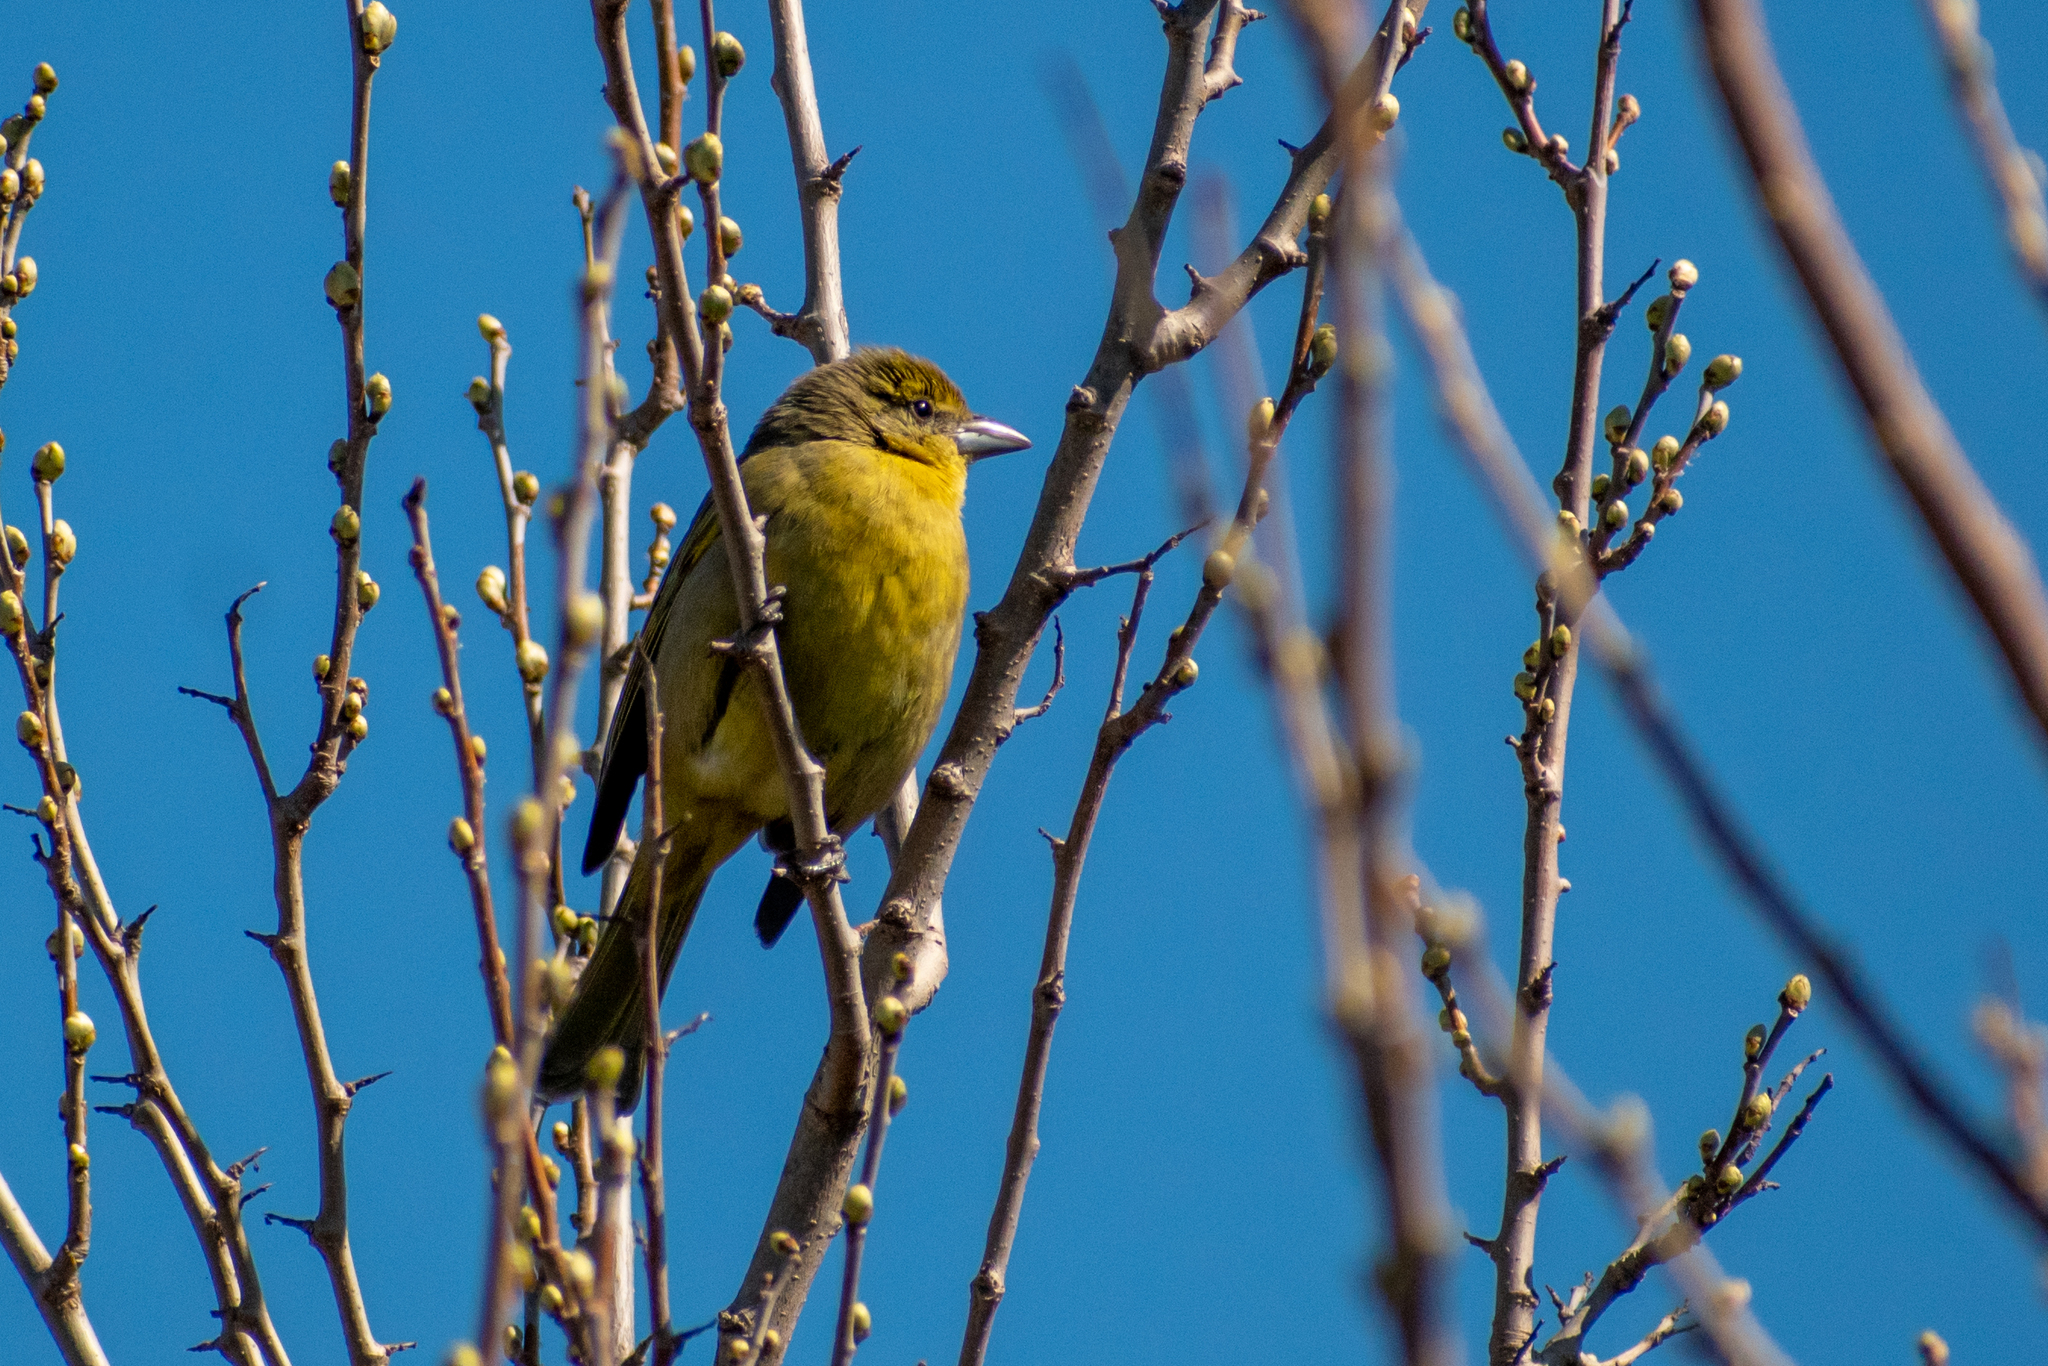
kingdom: Animalia
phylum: Chordata
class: Aves
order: Passeriformes
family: Cardinalidae
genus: Piranga
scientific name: Piranga flava
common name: Red tanager
